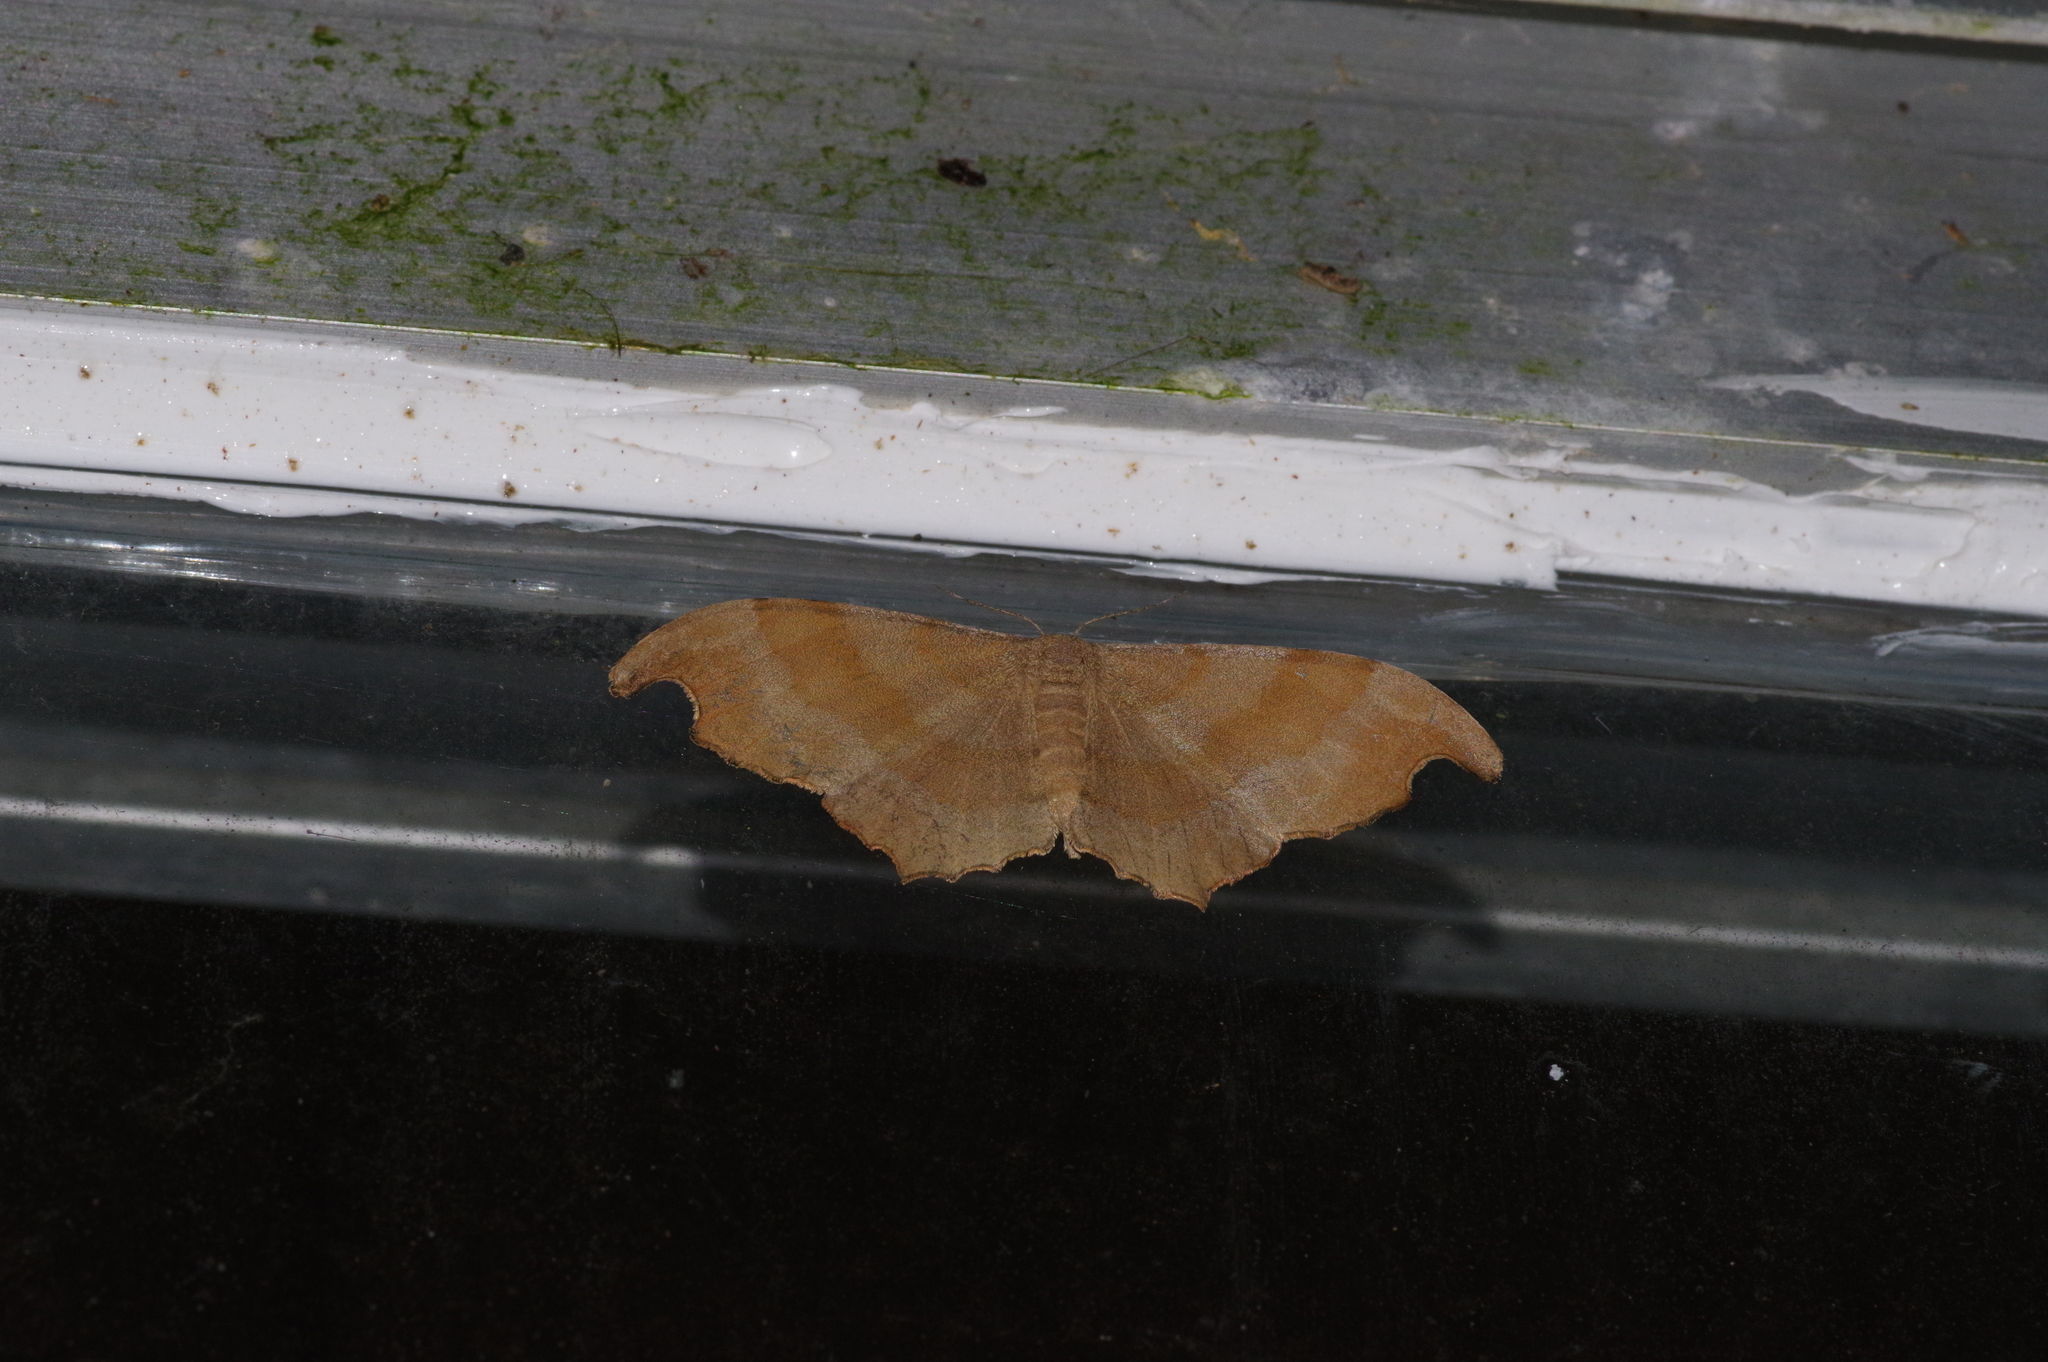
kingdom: Animalia
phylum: Arthropoda
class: Insecta
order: Lepidoptera
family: Geometridae
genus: Hyposidra
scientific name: Hyposidra talaca
